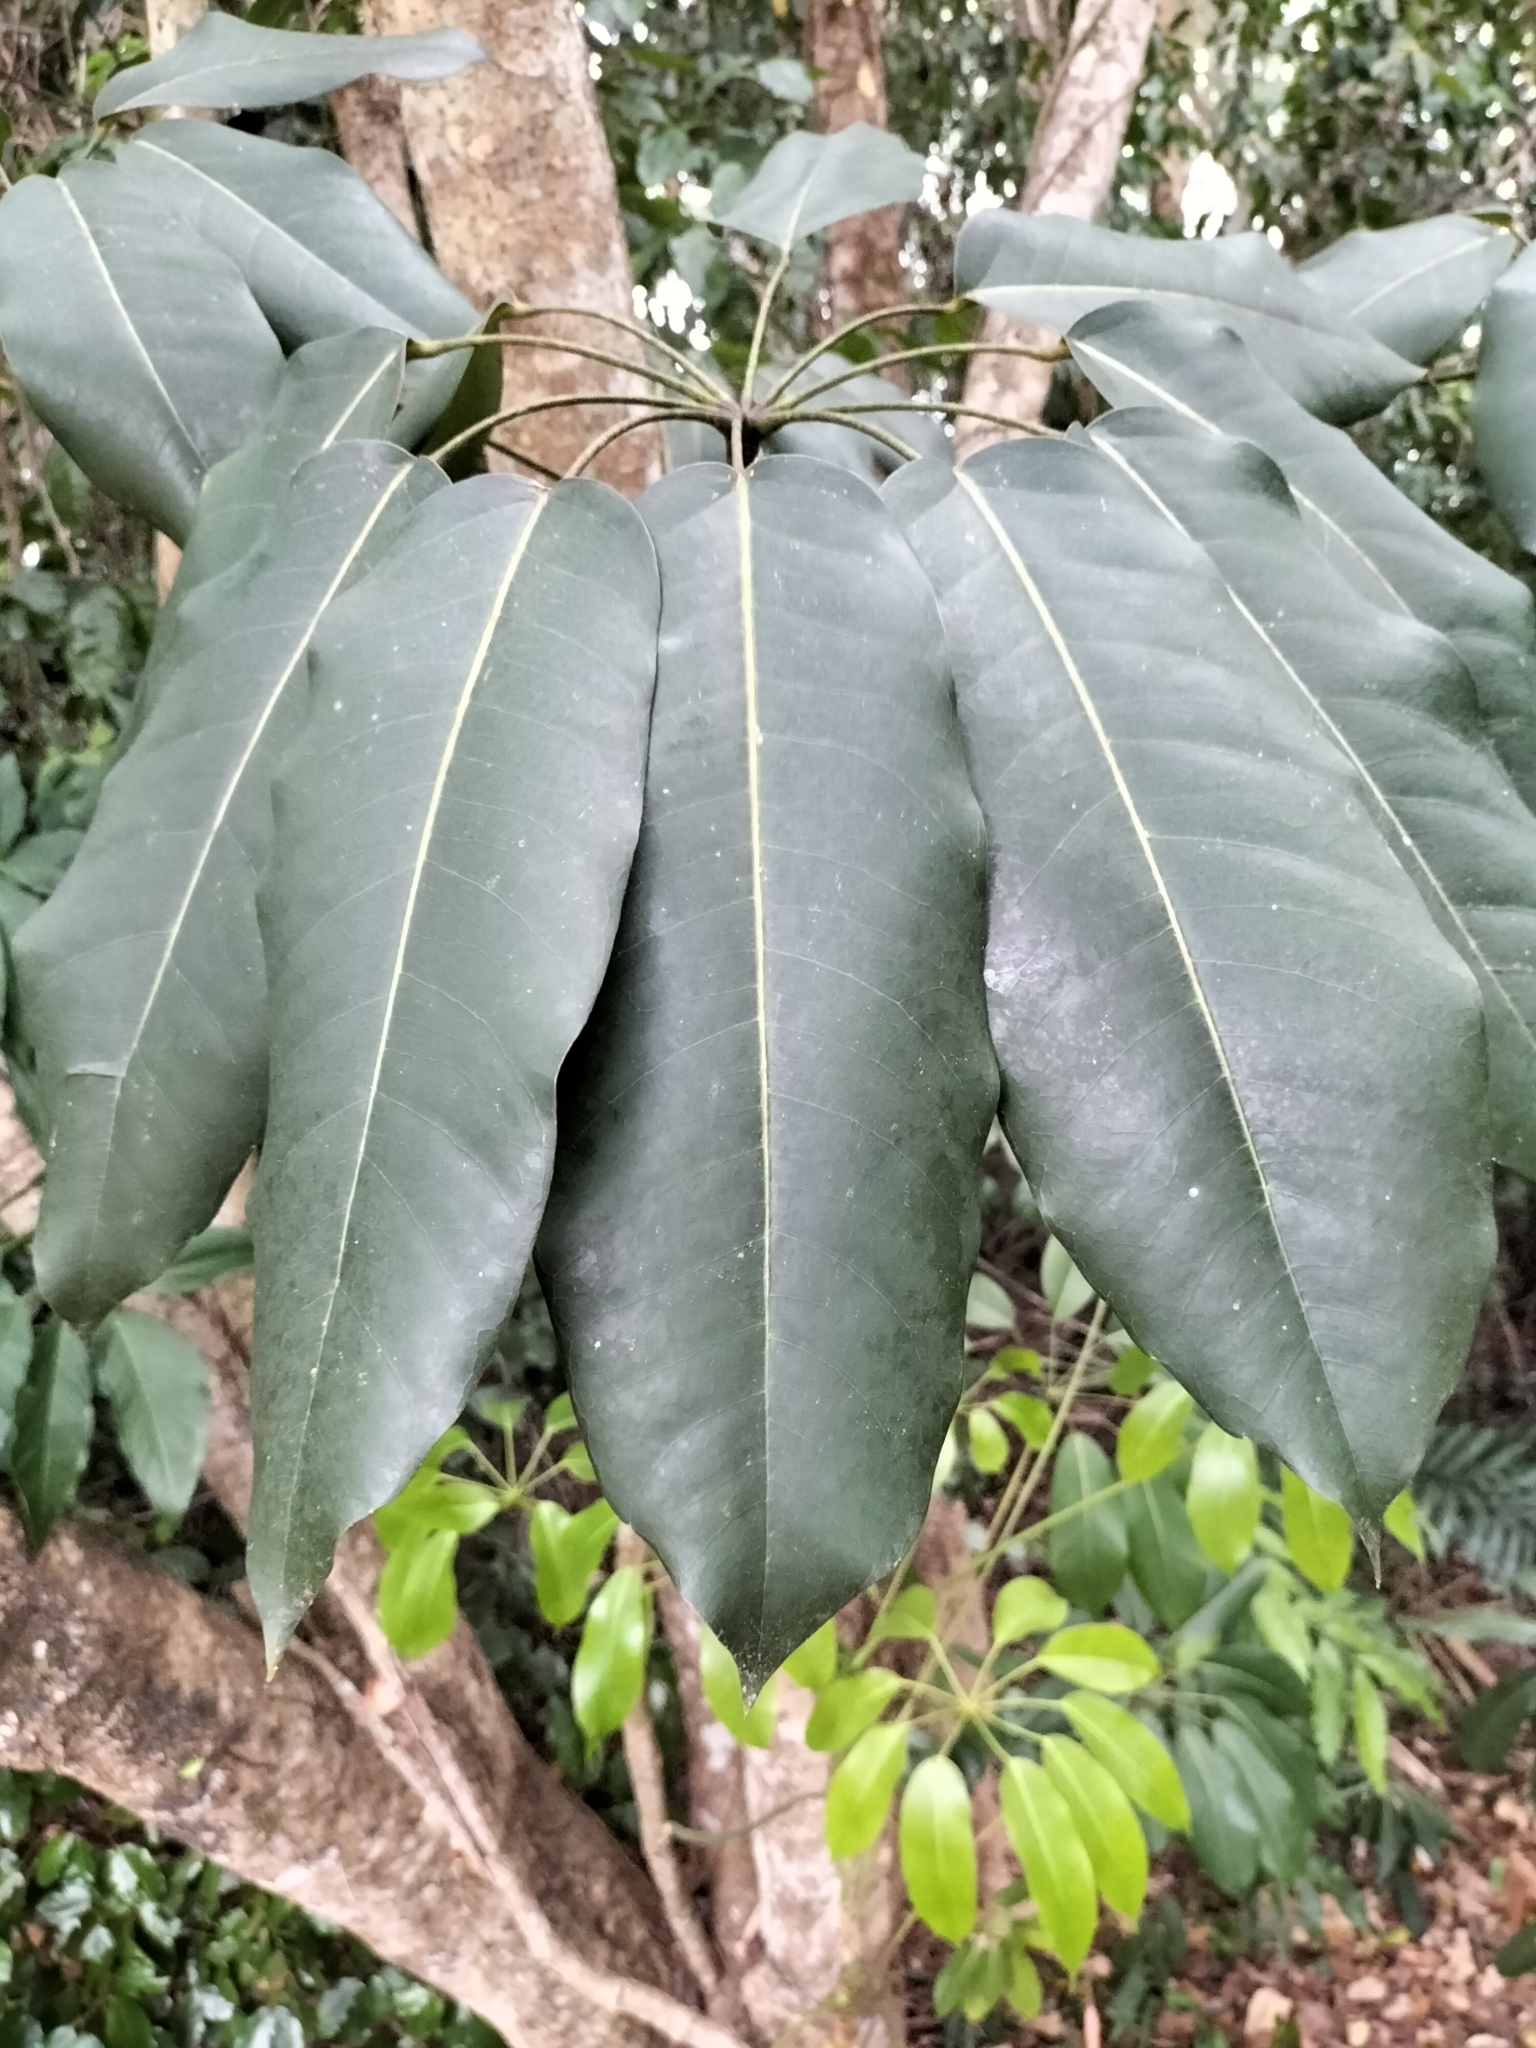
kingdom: Plantae
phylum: Tracheophyta
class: Magnoliopsida
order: Apiales
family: Araliaceae
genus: Heptapleurum
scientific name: Heptapleurum actinophyllum
